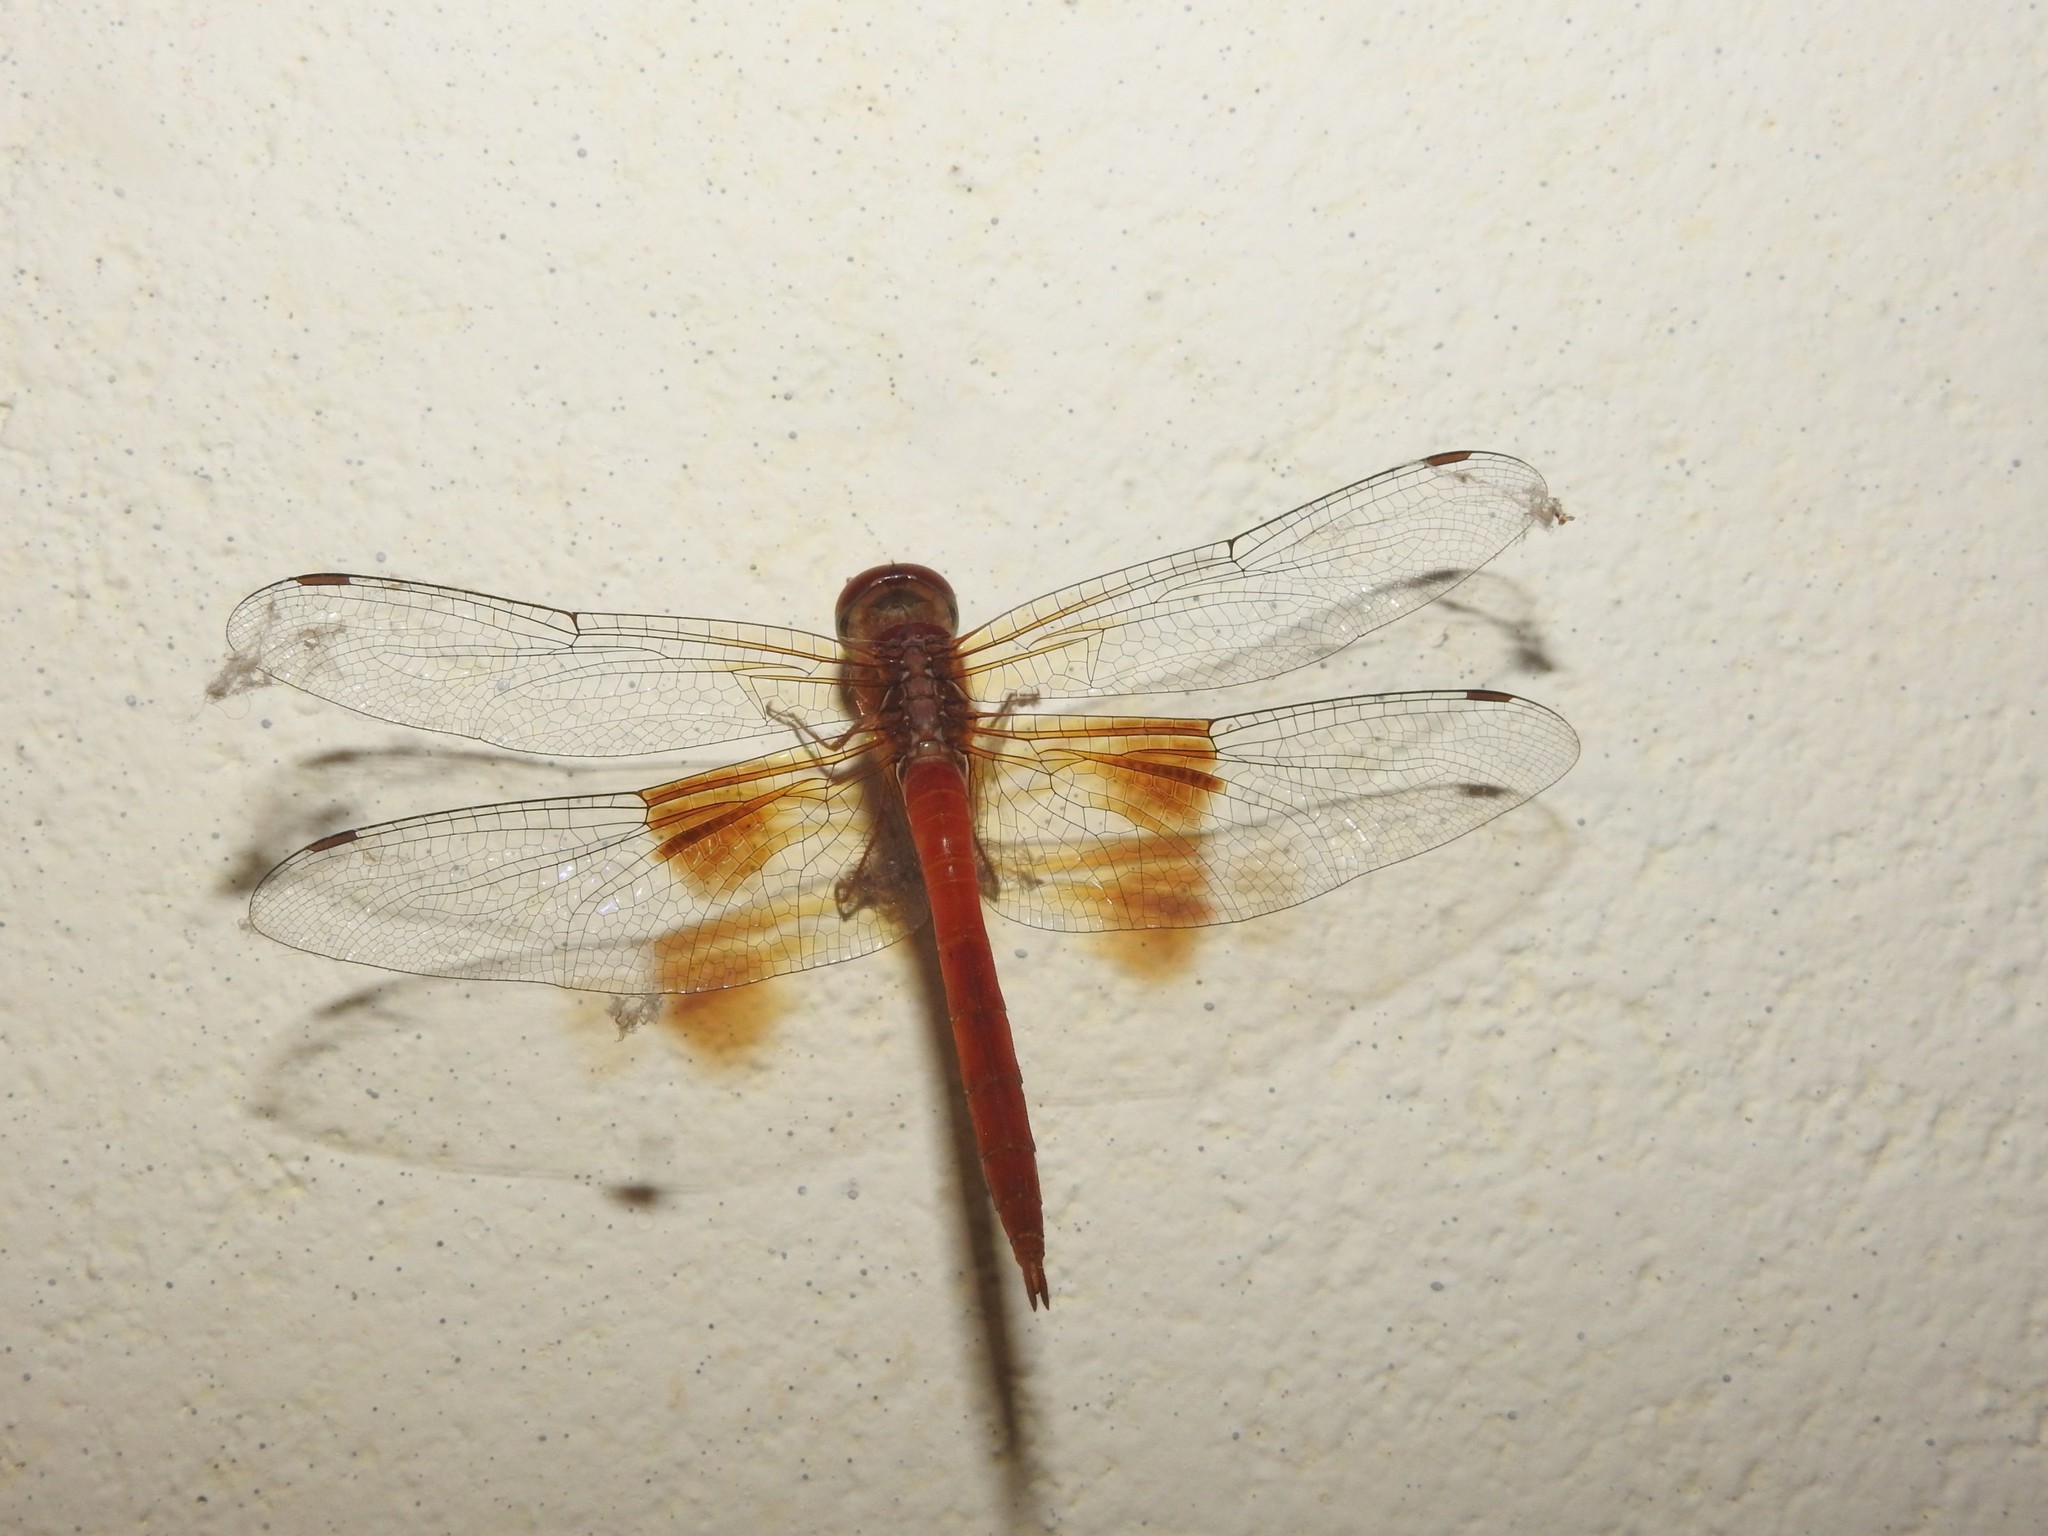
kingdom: Animalia
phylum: Arthropoda
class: Insecta
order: Odonata
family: Libellulidae
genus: Tholymis
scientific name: Tholymis tillarga
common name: Coral-tailed cloud wing
